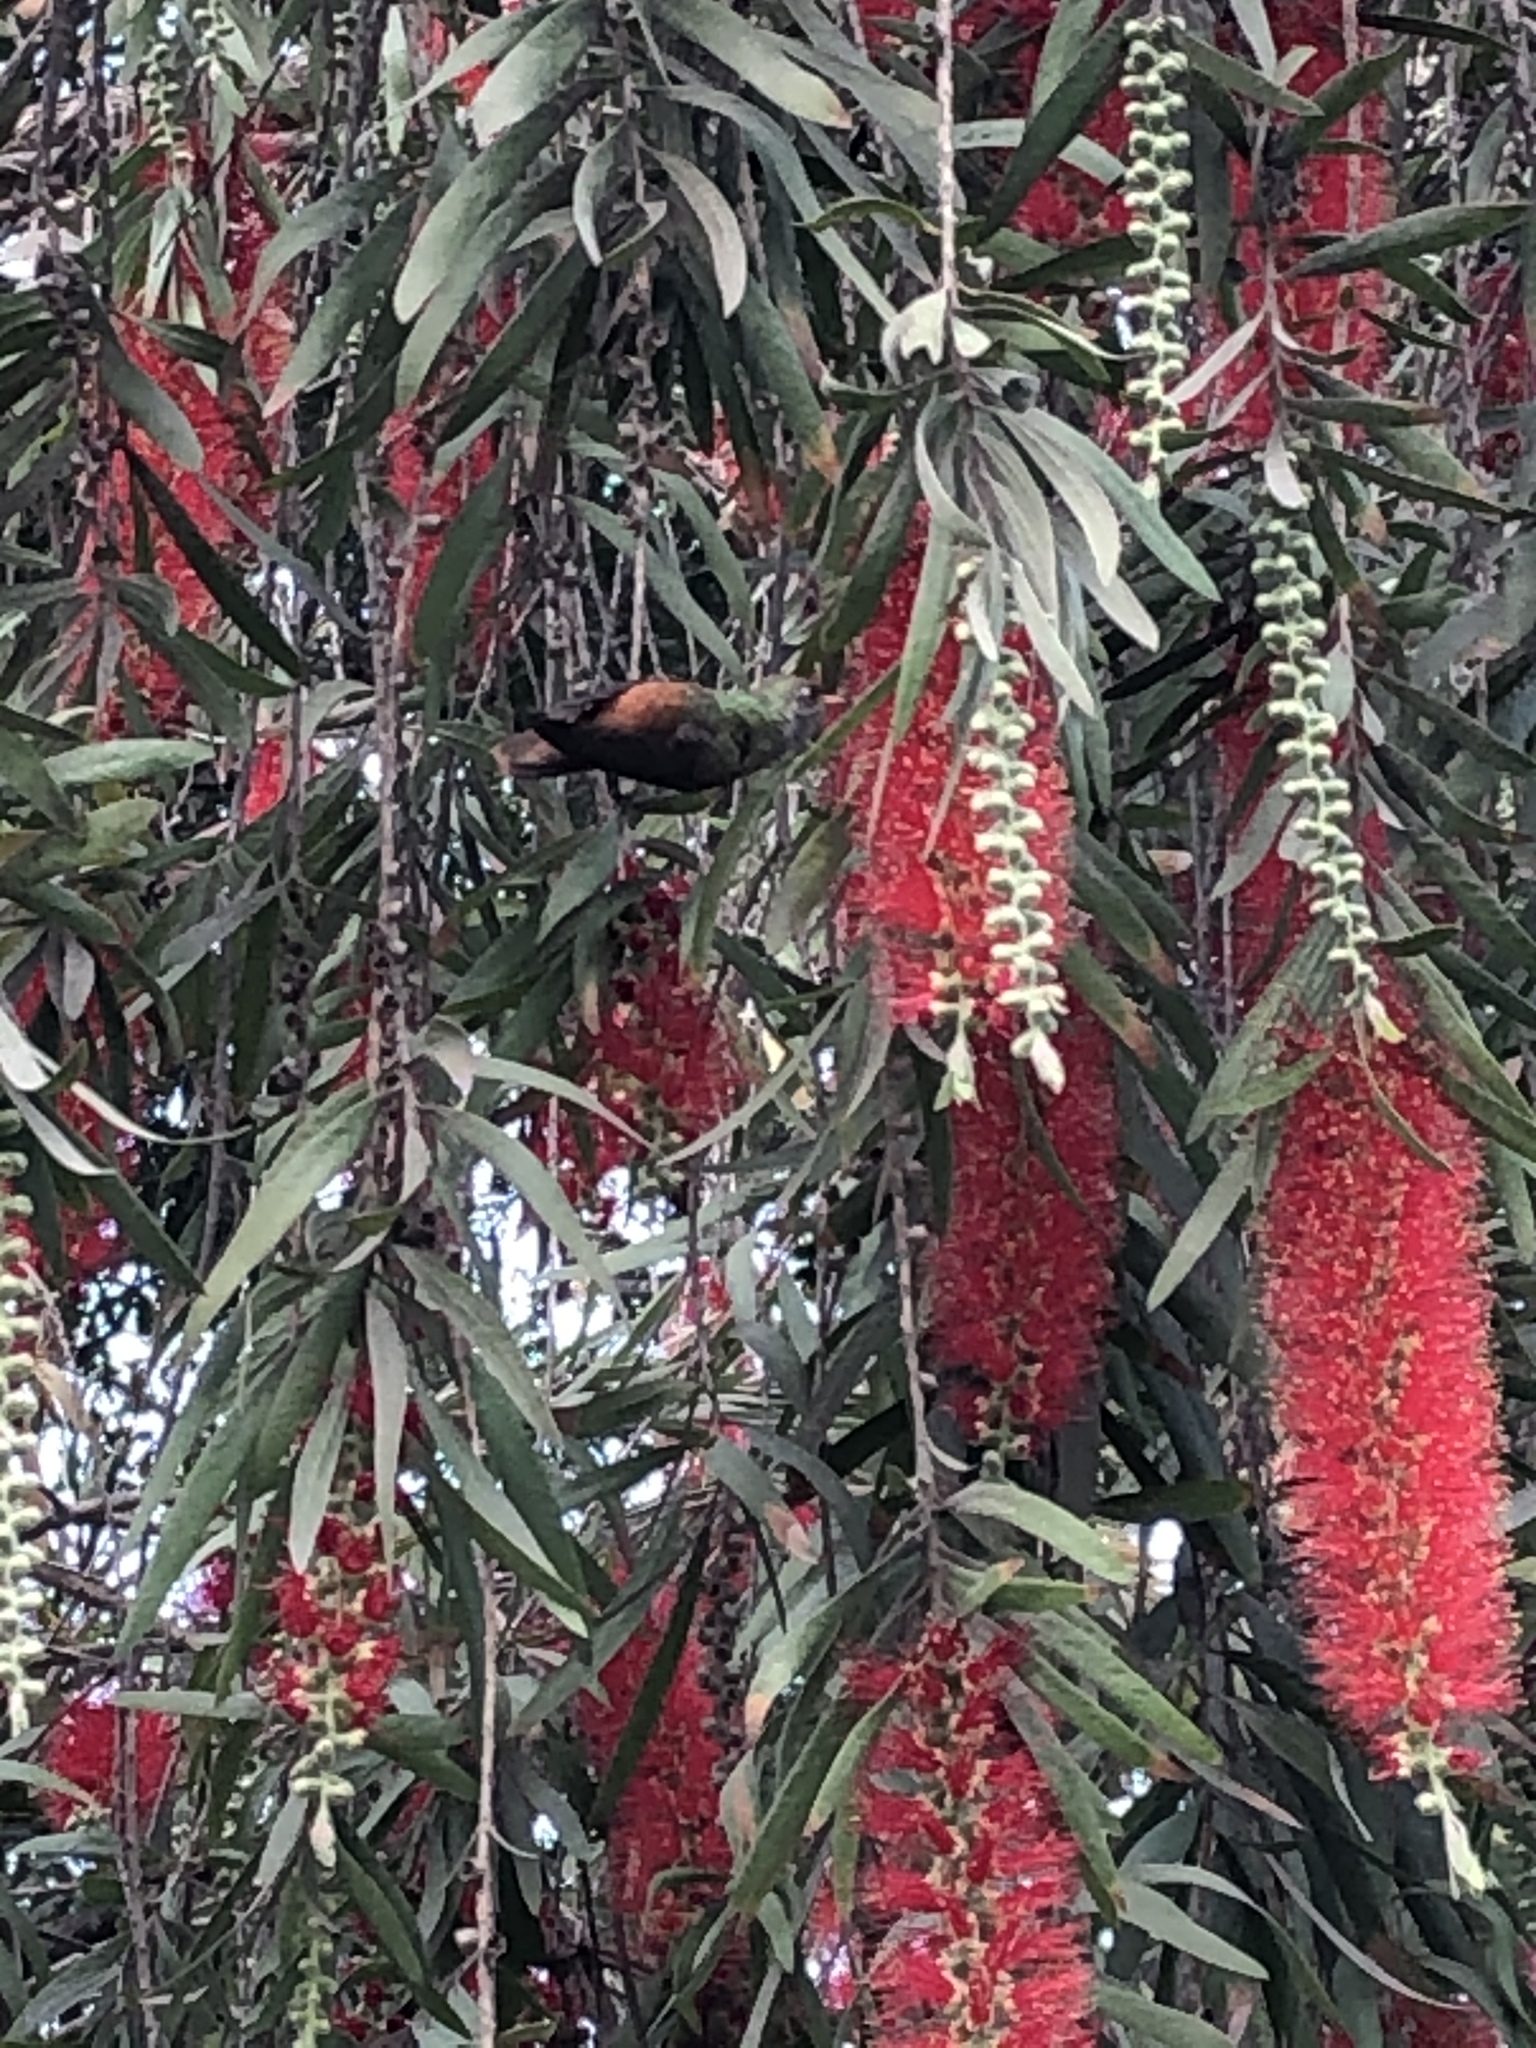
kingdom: Animalia
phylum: Chordata
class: Aves
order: Apodiformes
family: Trochilidae
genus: Amazilis
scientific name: Amazilis amazilia
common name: Amazilia hummingbird
